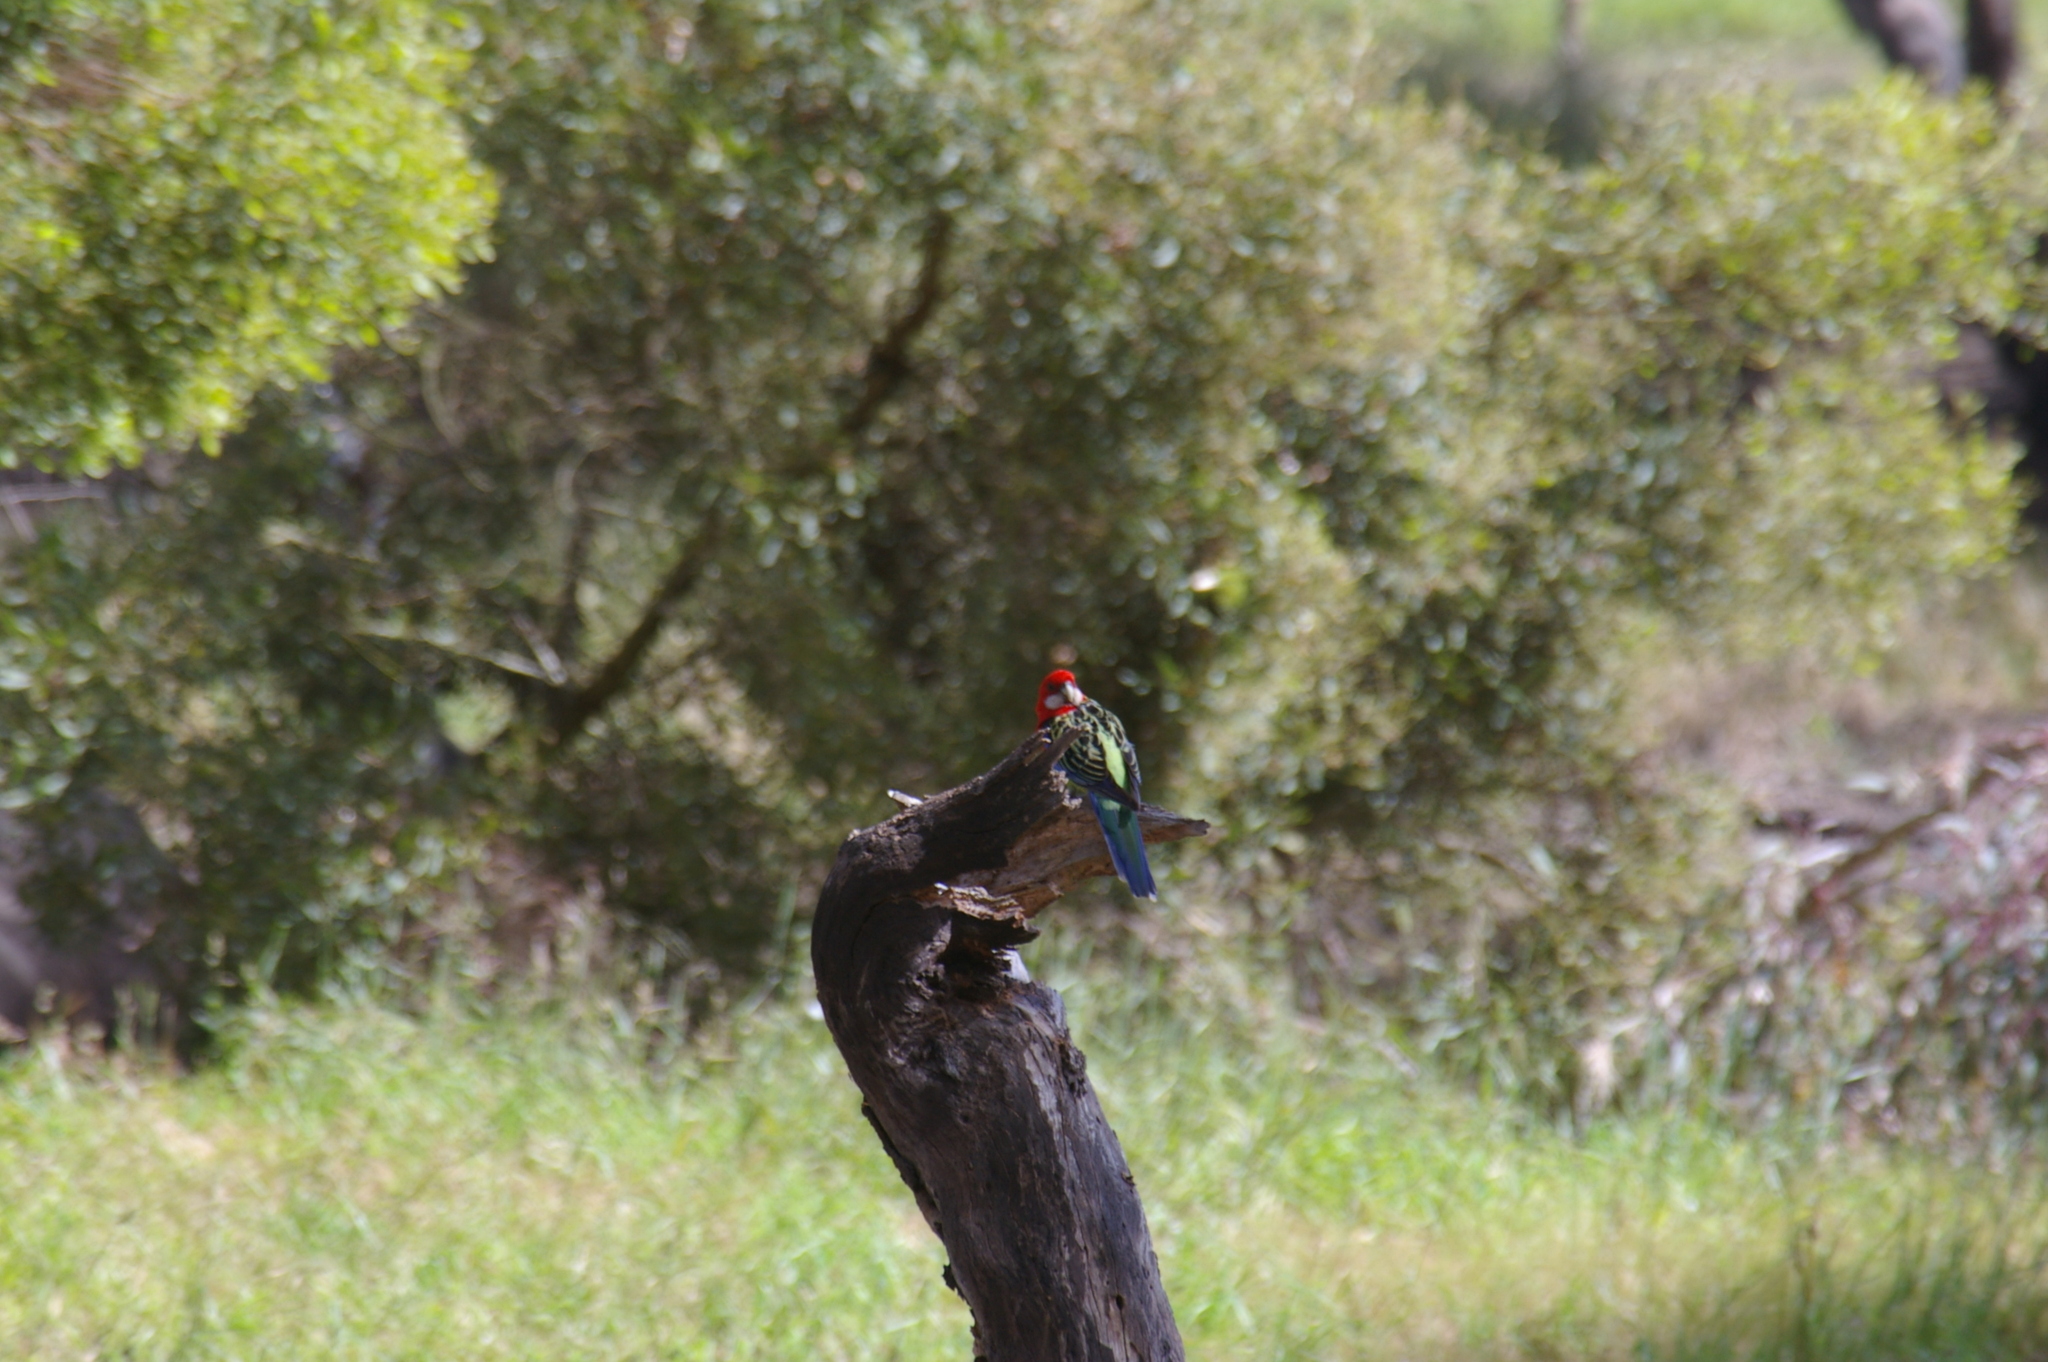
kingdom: Animalia
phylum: Chordata
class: Aves
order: Psittaciformes
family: Psittacidae
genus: Platycercus
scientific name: Platycercus eximius
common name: Eastern rosella
